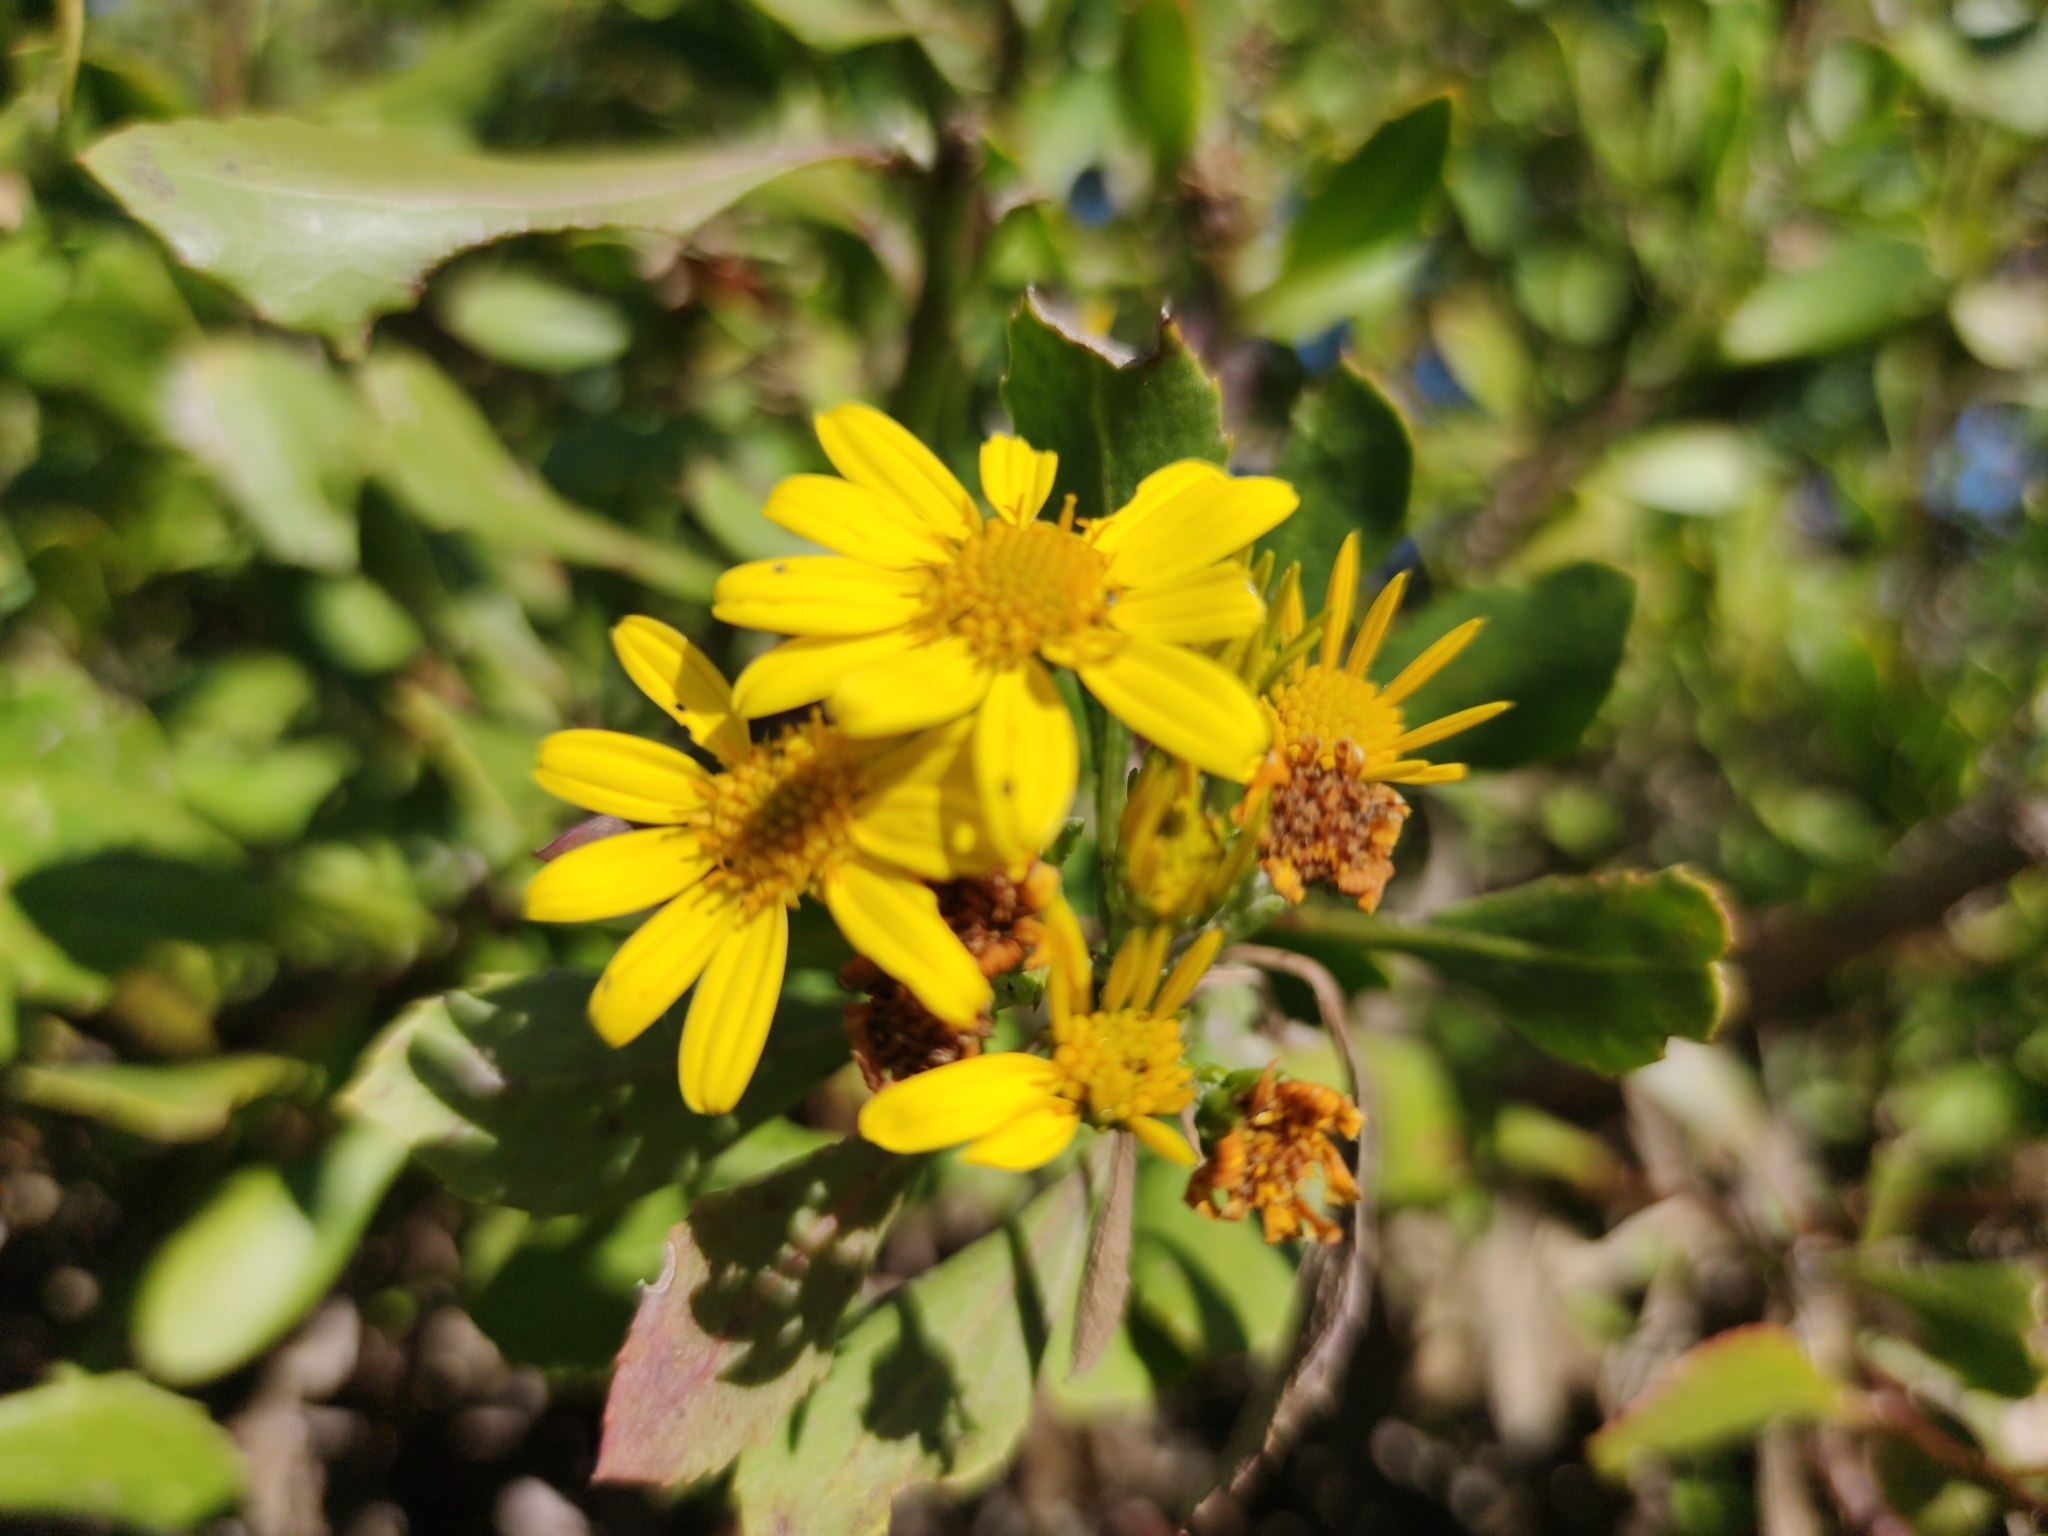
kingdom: Plantae
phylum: Tracheophyta
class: Magnoliopsida
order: Asterales
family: Asteraceae
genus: Osteospermum
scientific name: Osteospermum moniliferum
